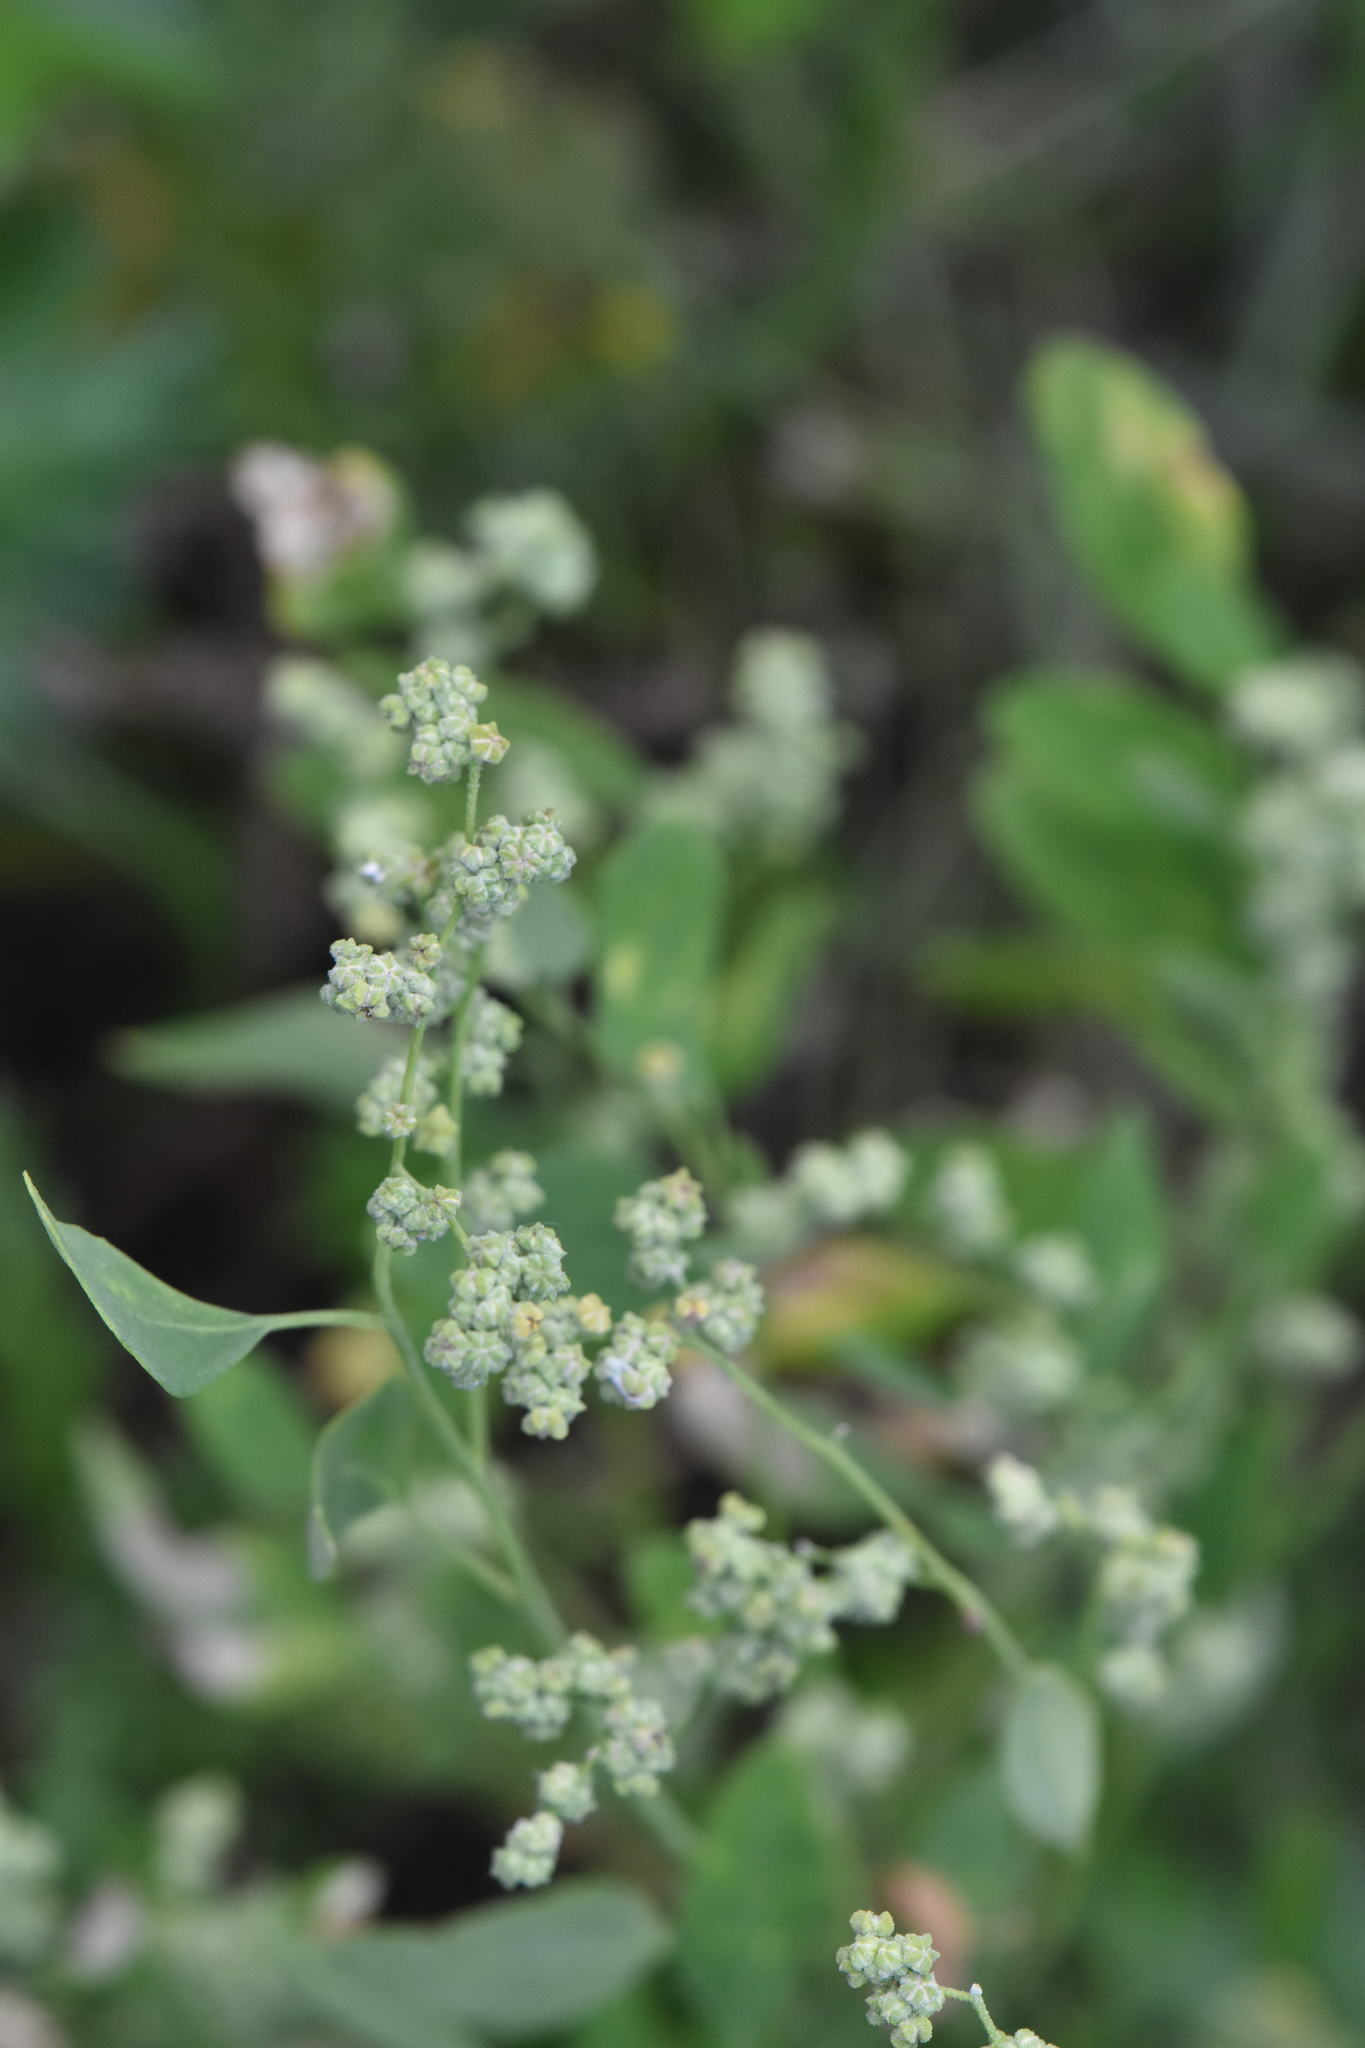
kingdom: Plantae
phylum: Tracheophyta
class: Magnoliopsida
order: Caryophyllales
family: Amaranthaceae
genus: Chenopodium
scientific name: Chenopodium album
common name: Fat-hen
